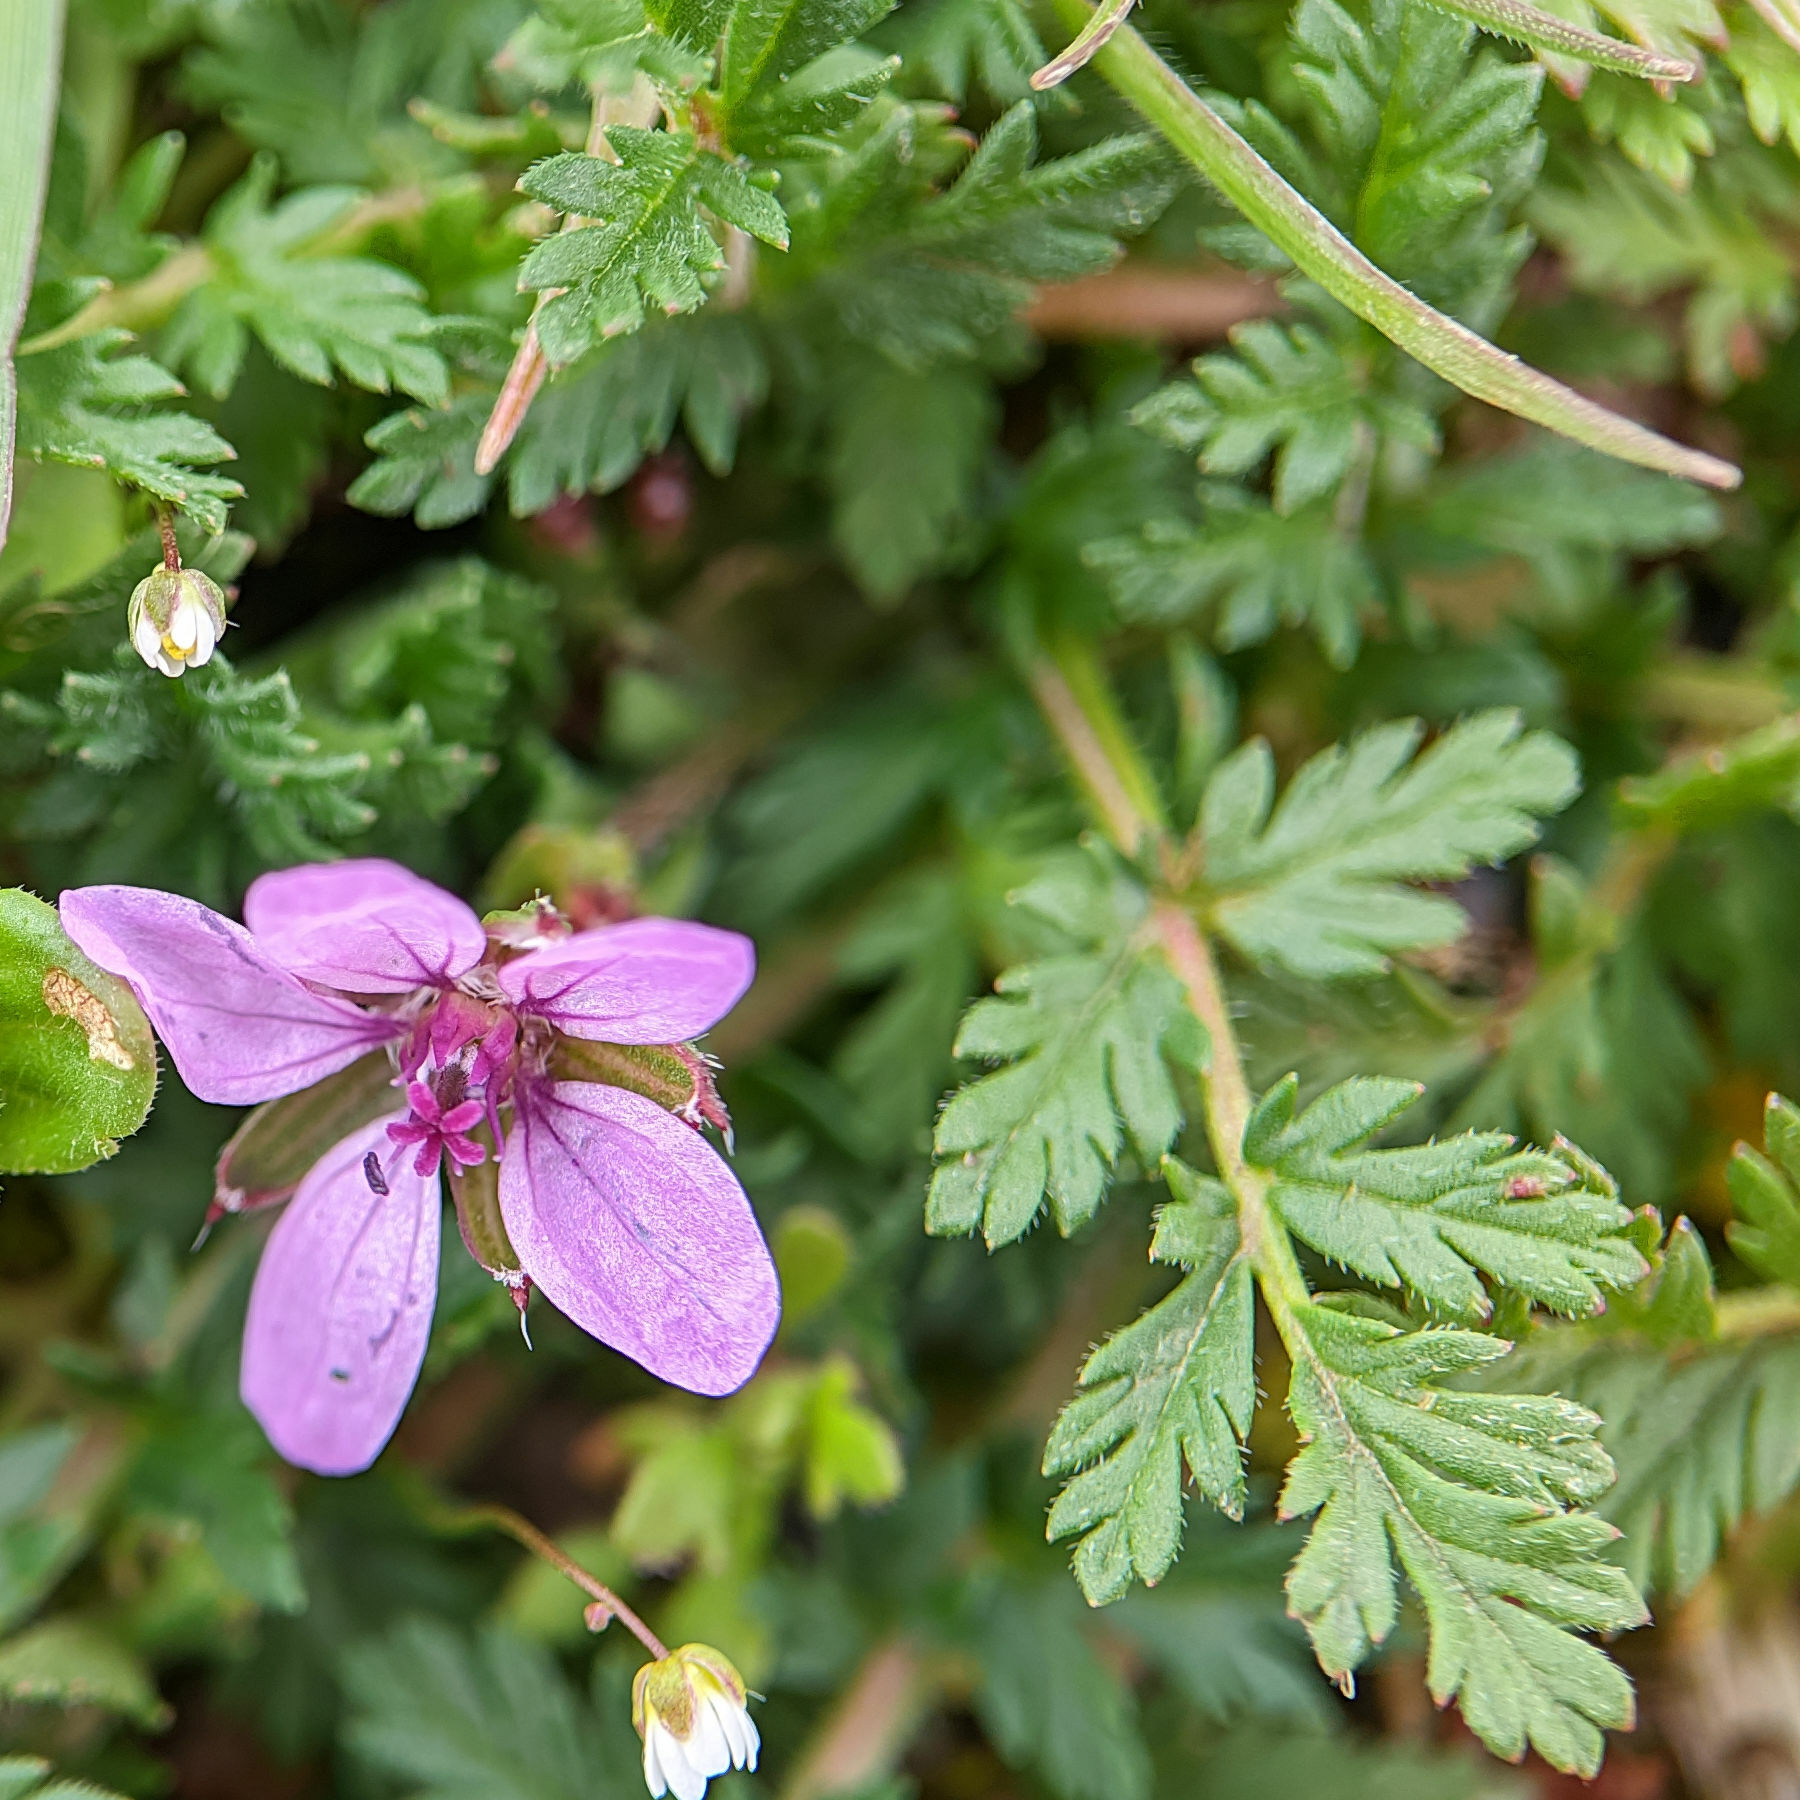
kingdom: Plantae
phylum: Tracheophyta
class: Magnoliopsida
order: Geraniales
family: Geraniaceae
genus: Erodium
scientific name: Erodium cicutarium
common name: Common stork's-bill
